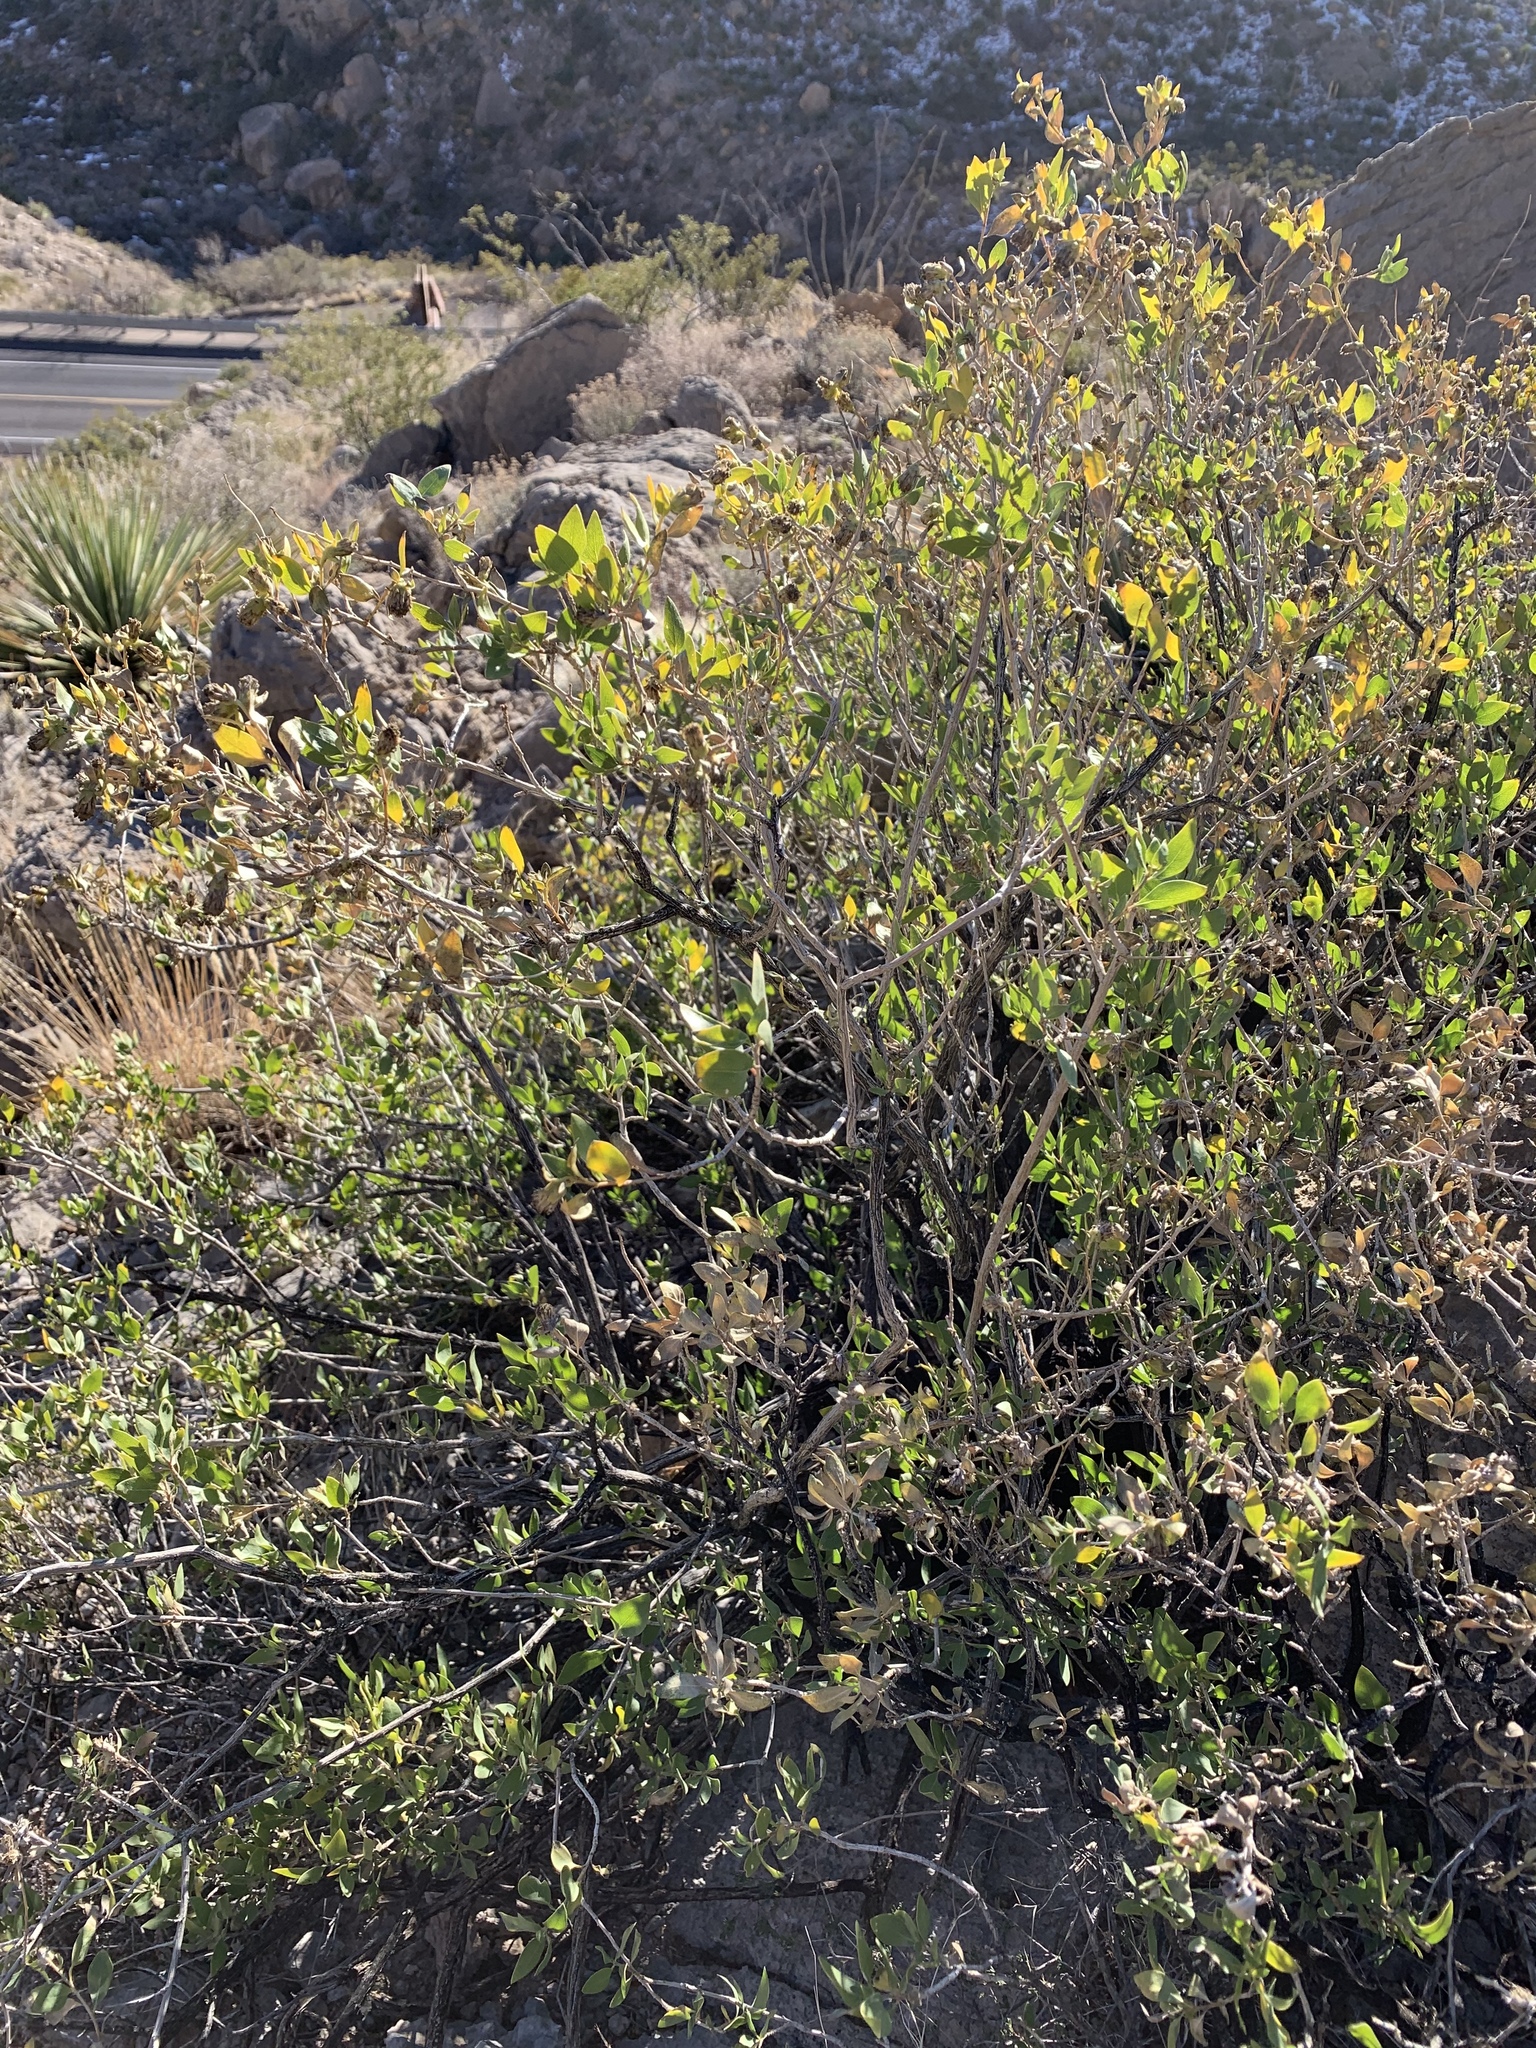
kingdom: Plantae
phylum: Tracheophyta
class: Magnoliopsida
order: Asterales
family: Asteraceae
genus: Flourensia
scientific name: Flourensia cernua
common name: Varnishbush
